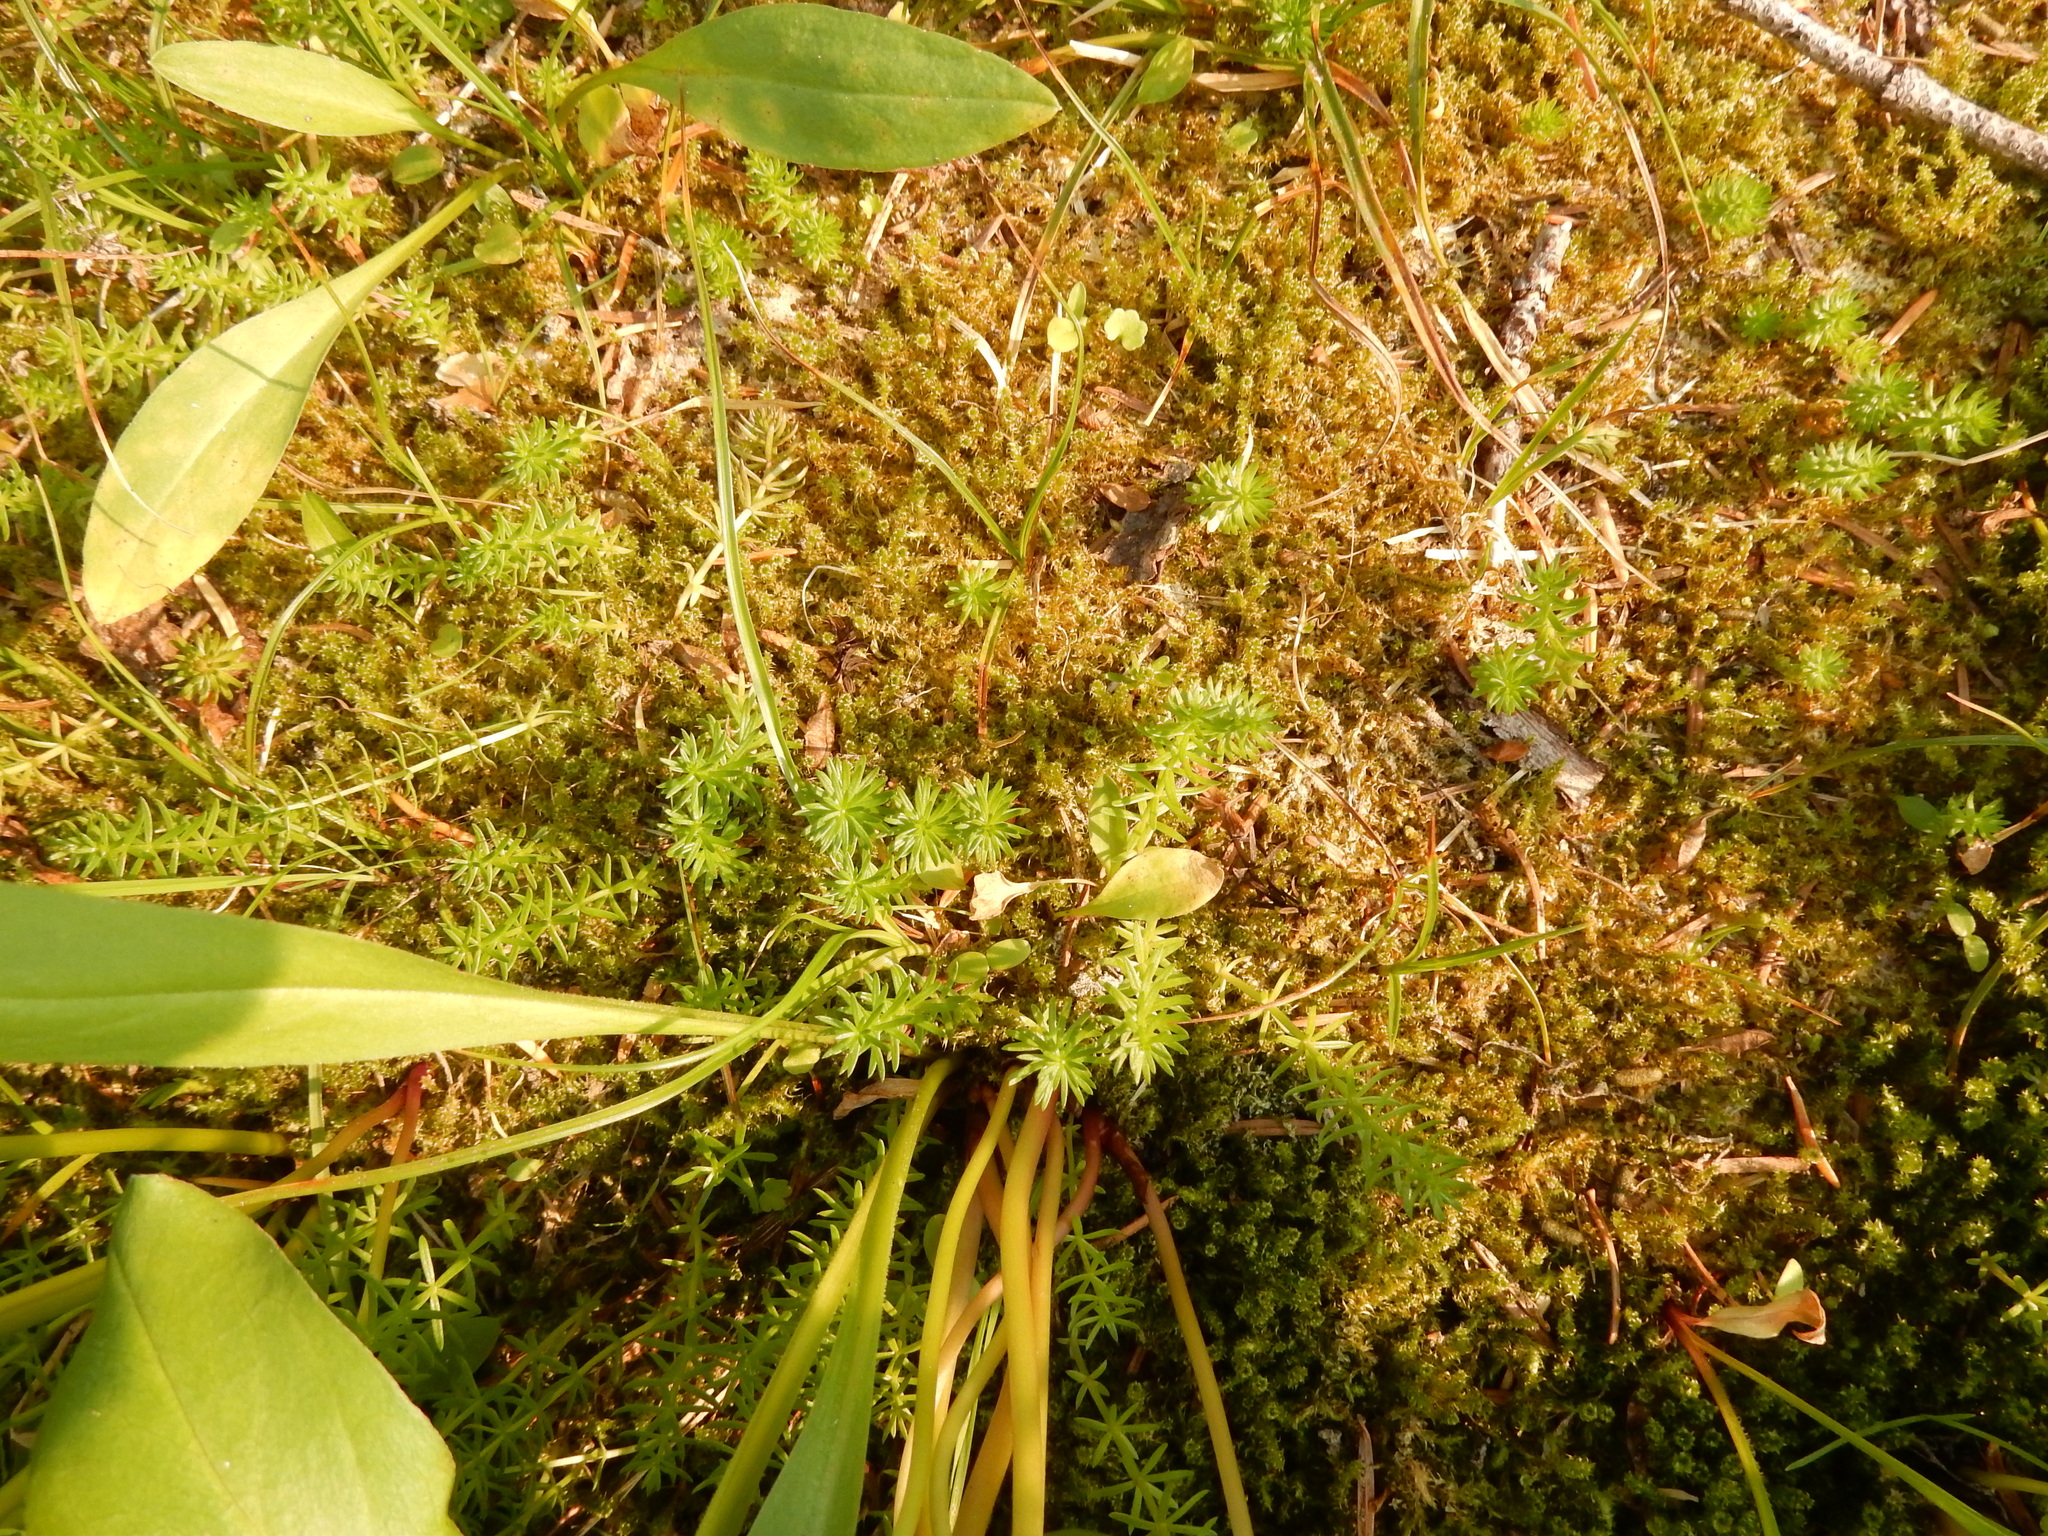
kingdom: Plantae
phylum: Tracheophyta
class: Magnoliopsida
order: Lamiales
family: Plantaginaceae
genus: Hippuris
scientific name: Hippuris montana
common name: Mountain mare's-tail
